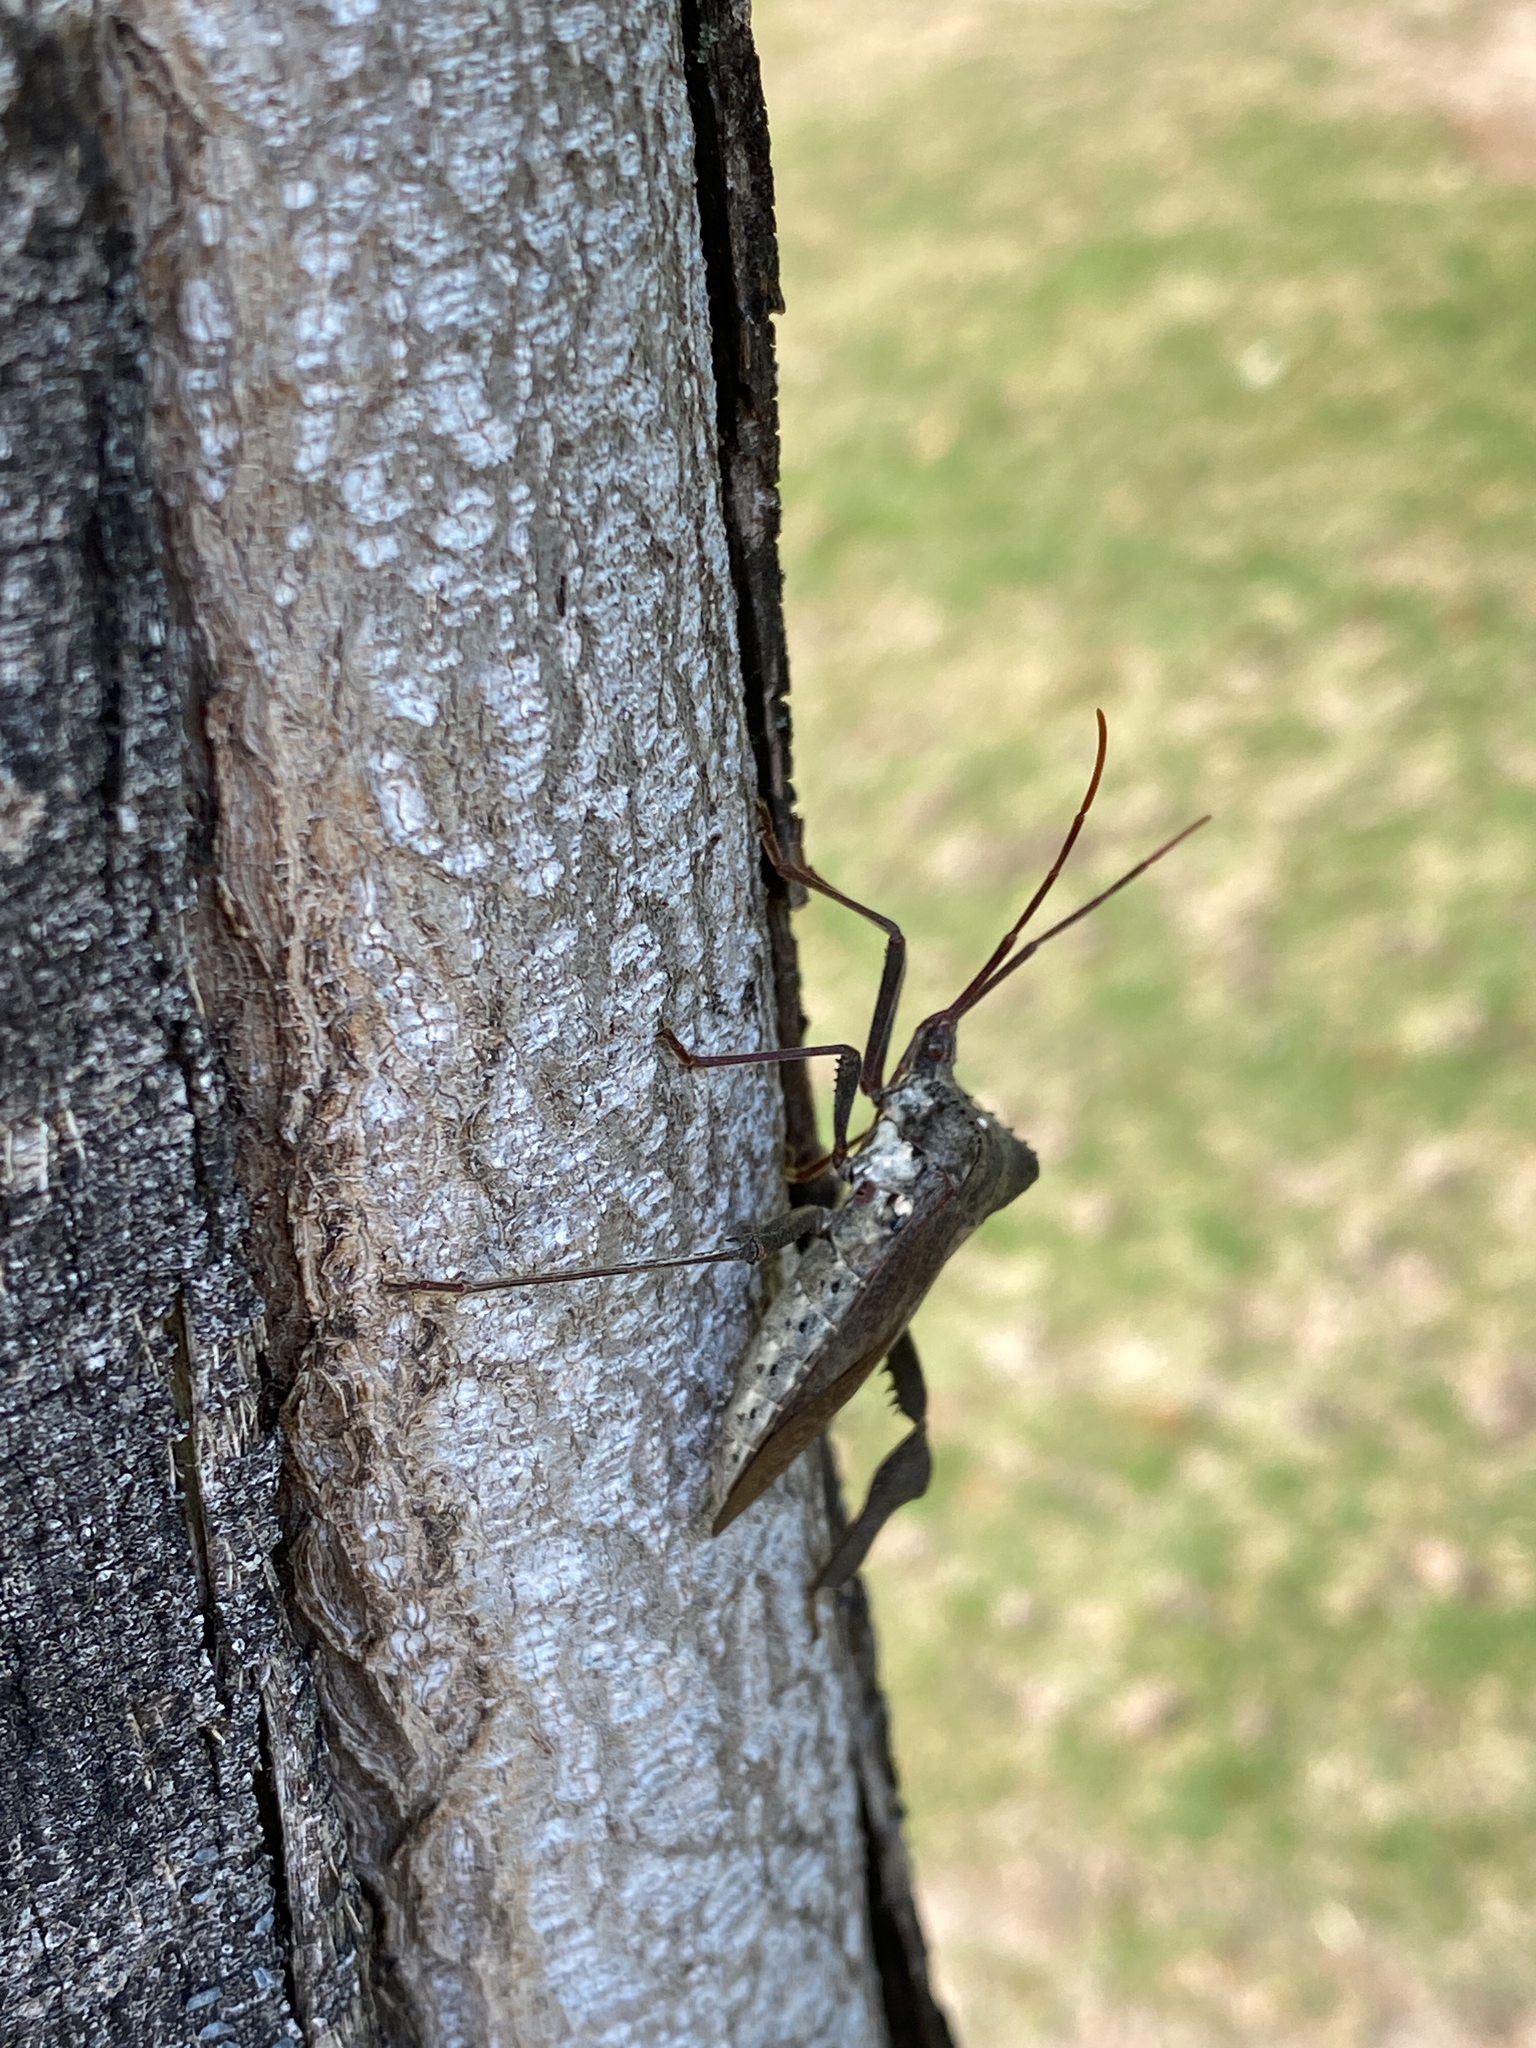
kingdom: Animalia
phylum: Arthropoda
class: Insecta
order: Hemiptera
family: Coreidae
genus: Acanthocephala
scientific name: Acanthocephala declivis
